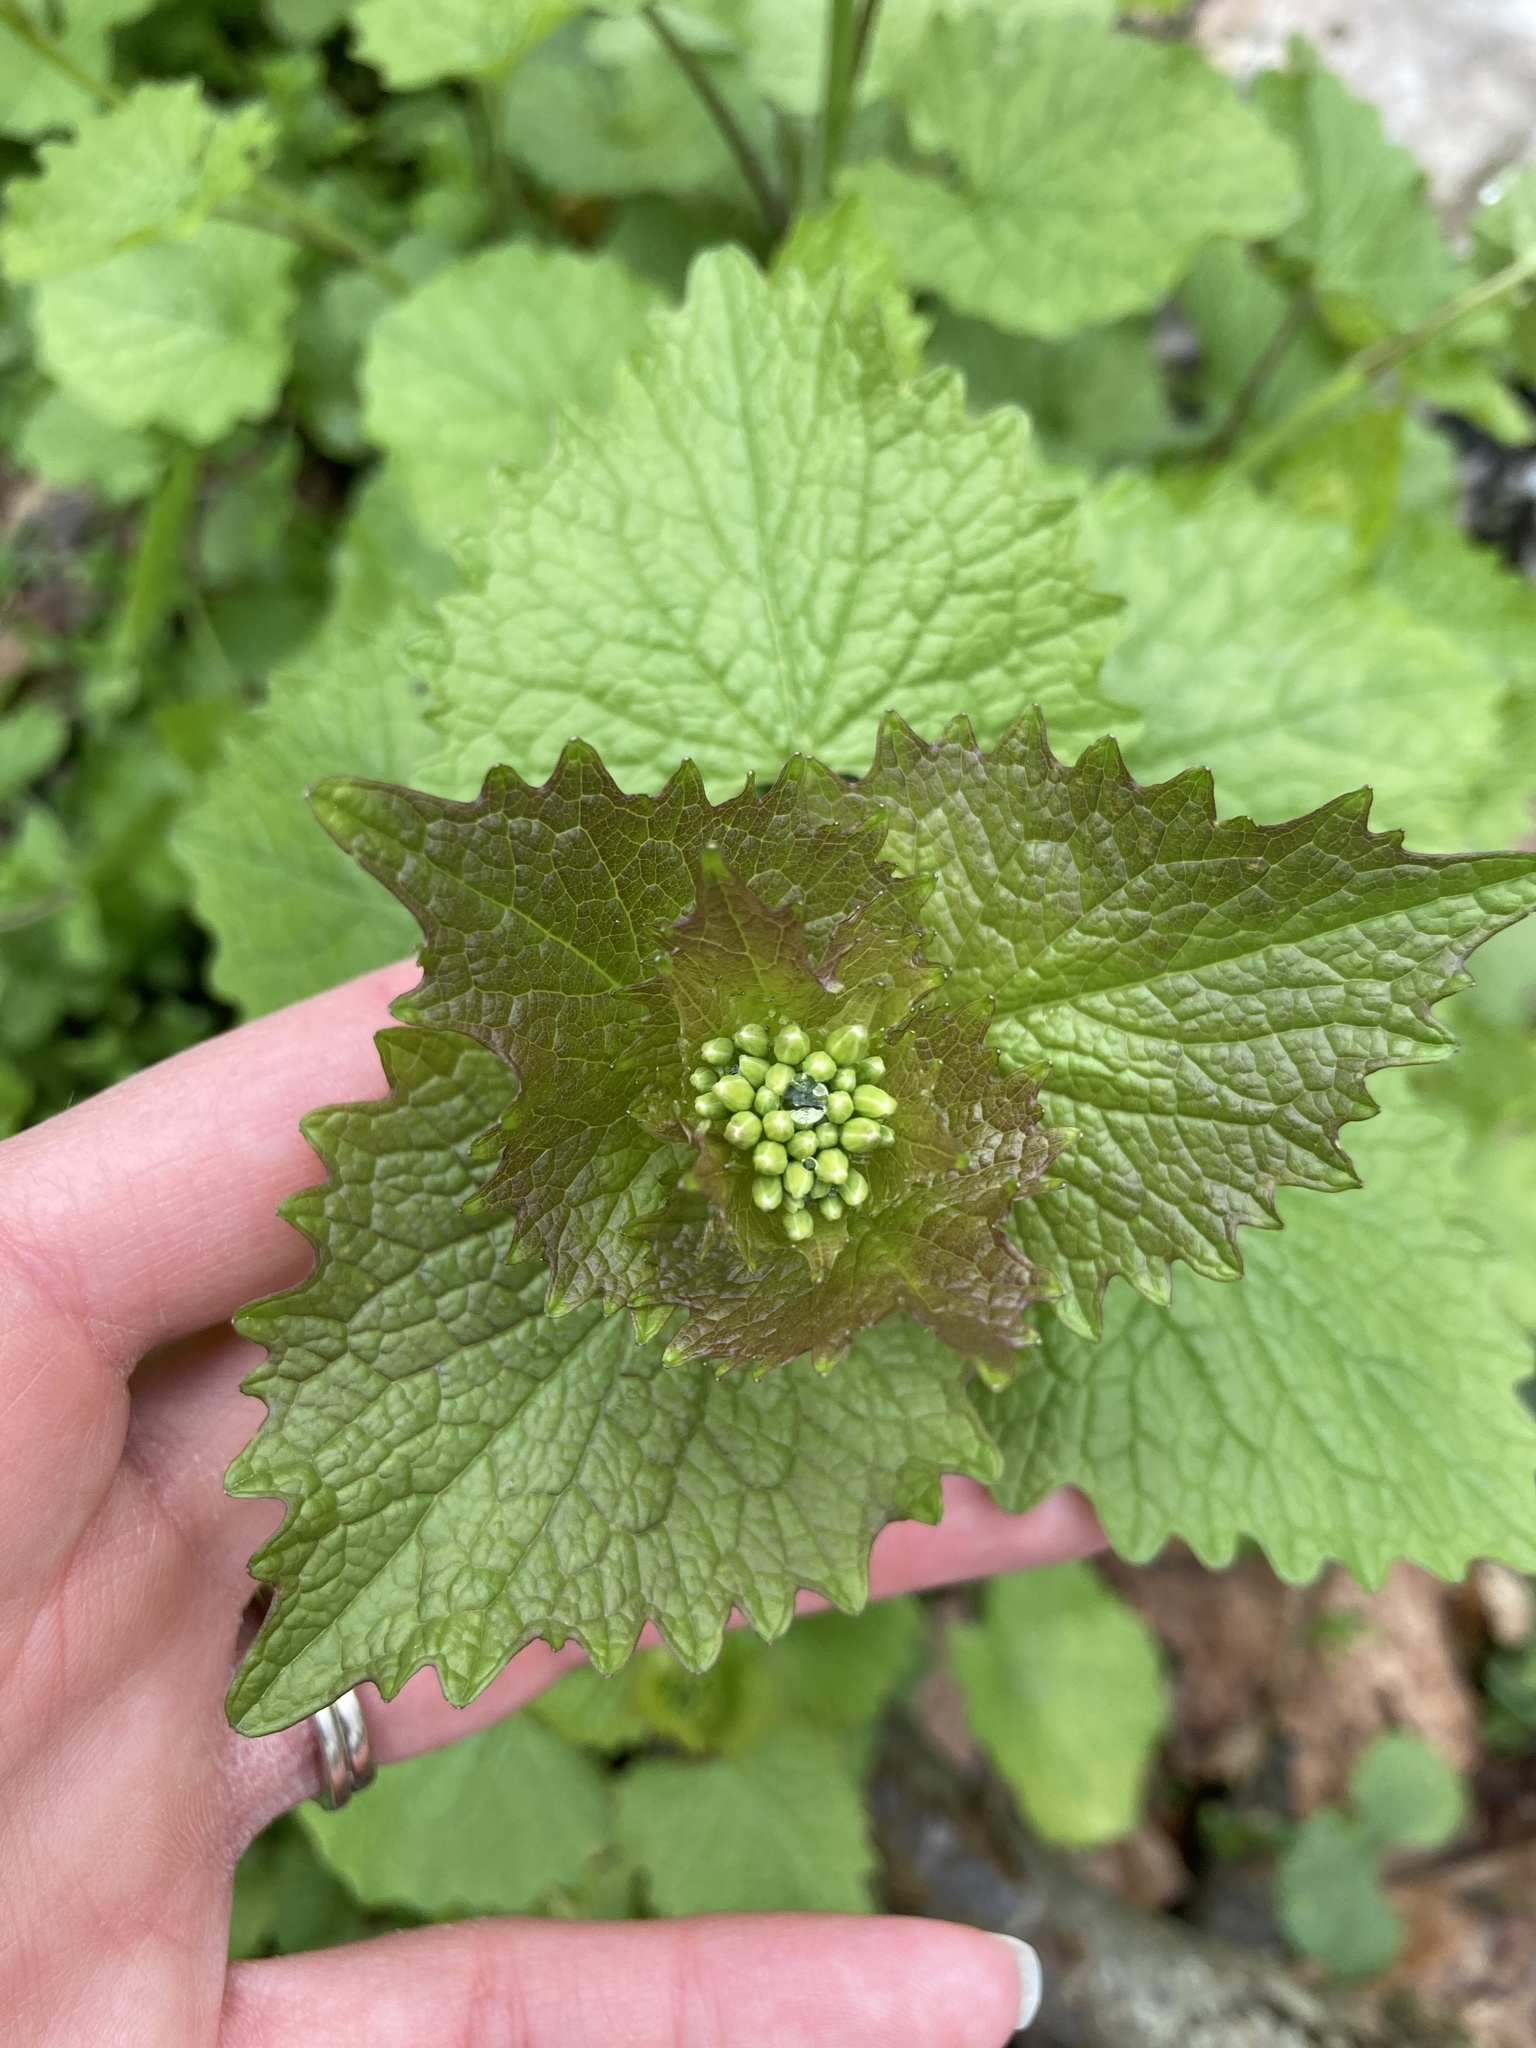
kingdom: Plantae
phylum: Tracheophyta
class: Magnoliopsida
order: Brassicales
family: Brassicaceae
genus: Alliaria
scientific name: Alliaria petiolata
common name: Garlic mustard
